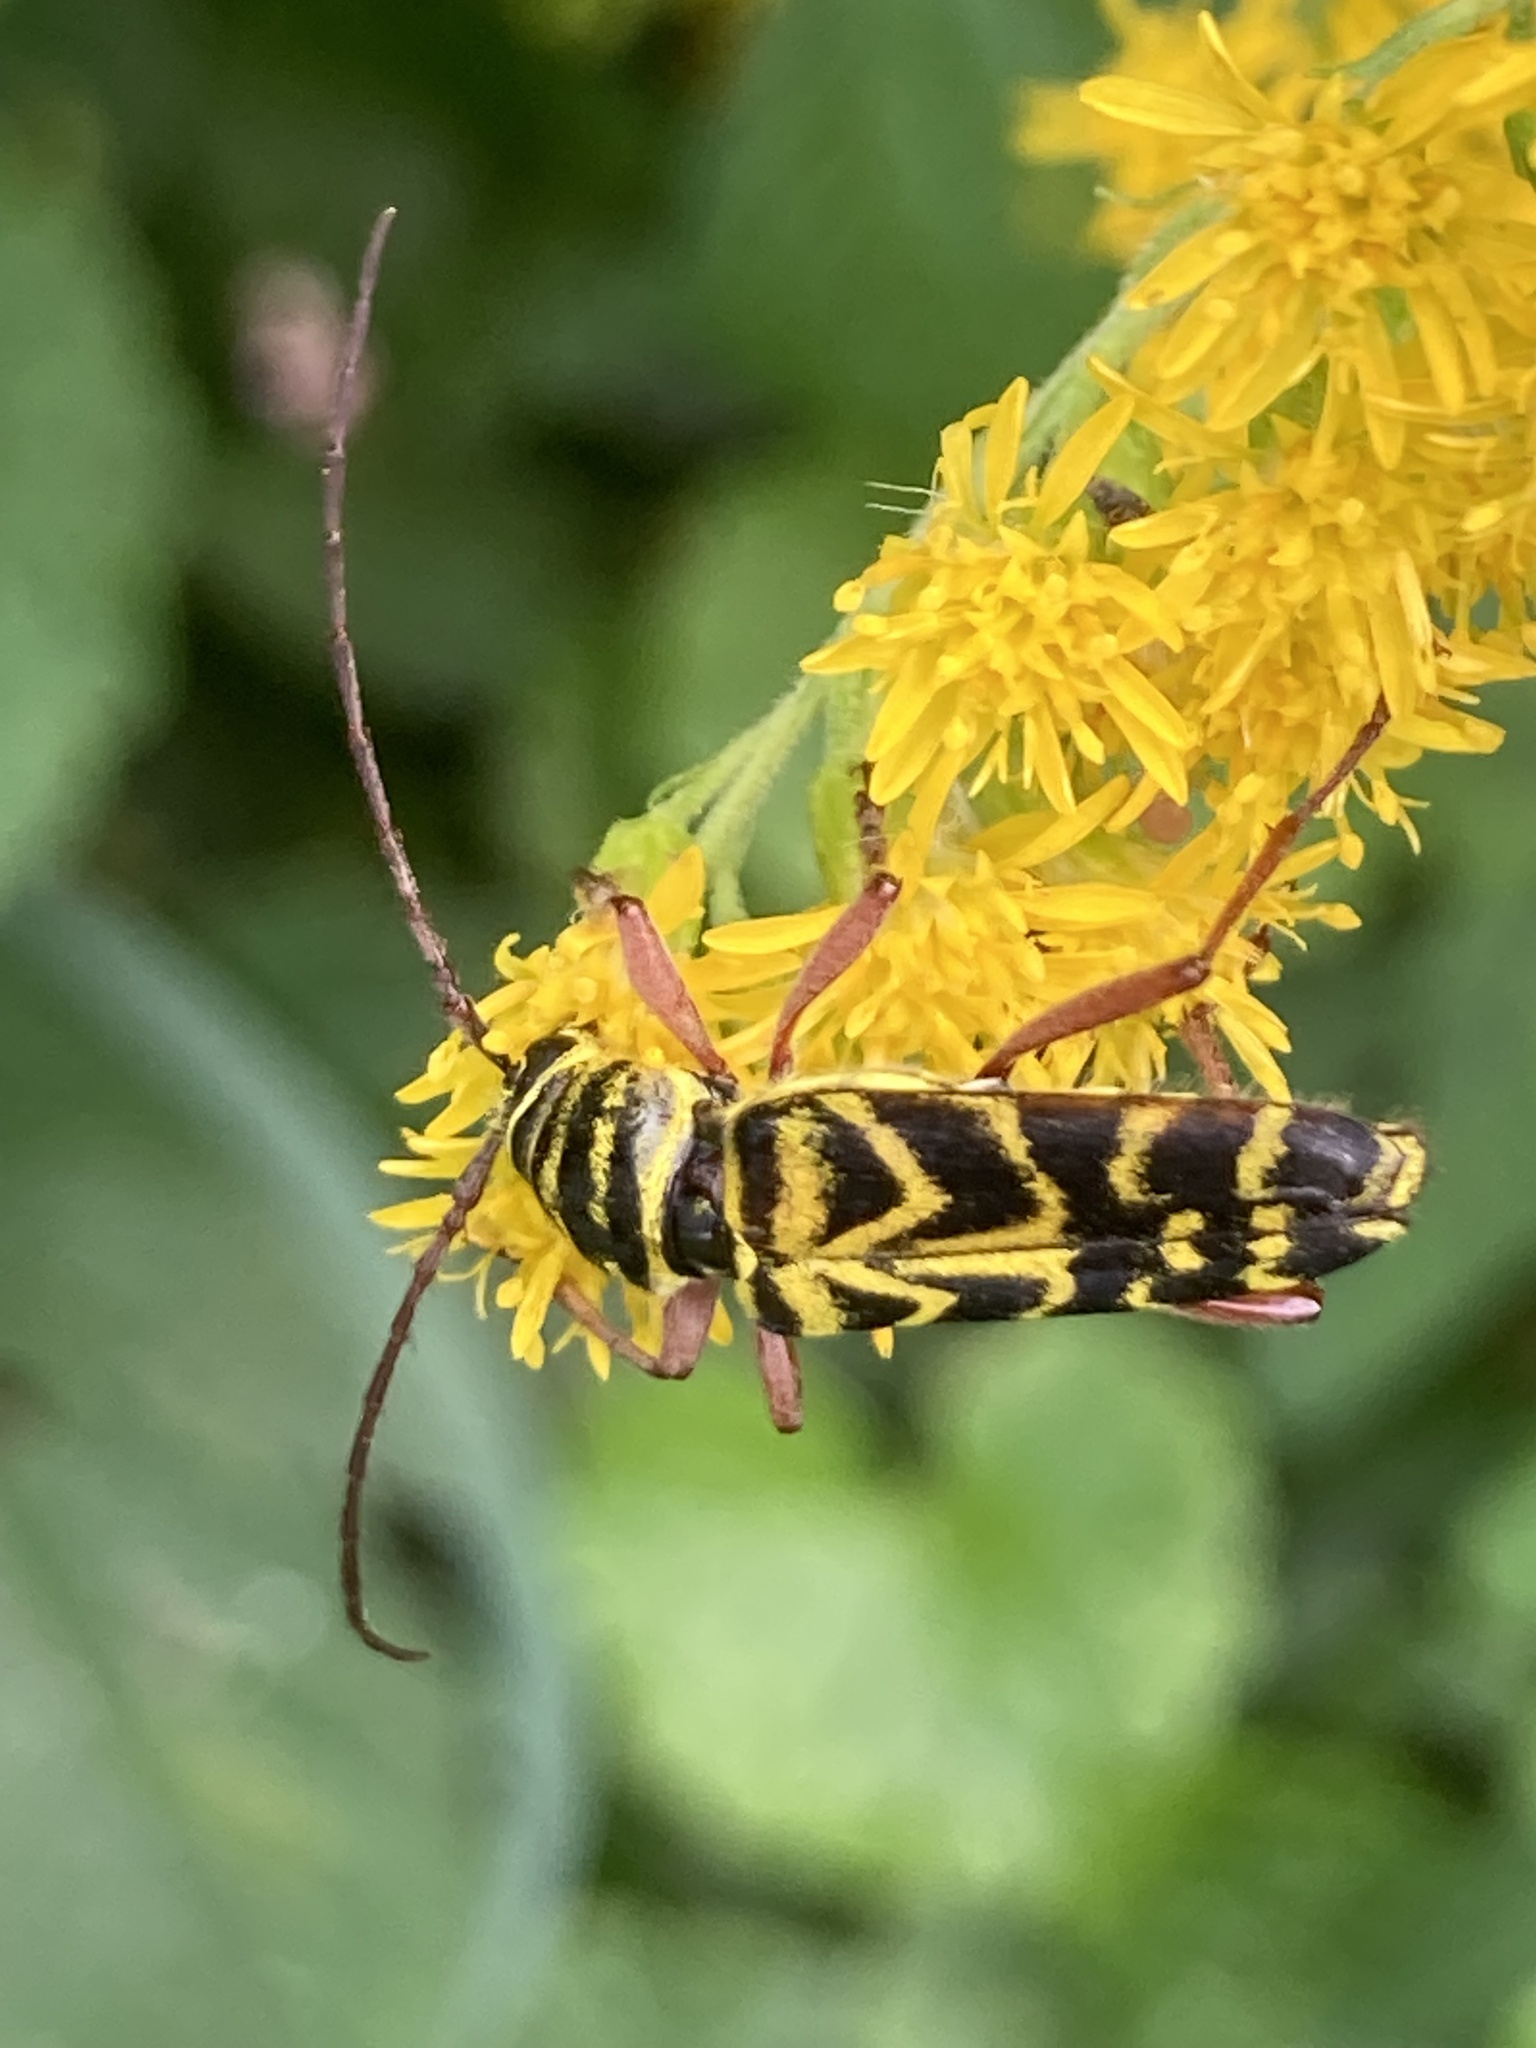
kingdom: Animalia
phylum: Arthropoda
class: Insecta
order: Coleoptera
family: Cerambycidae
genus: Megacyllene
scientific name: Megacyllene robiniae
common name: Locust borer
